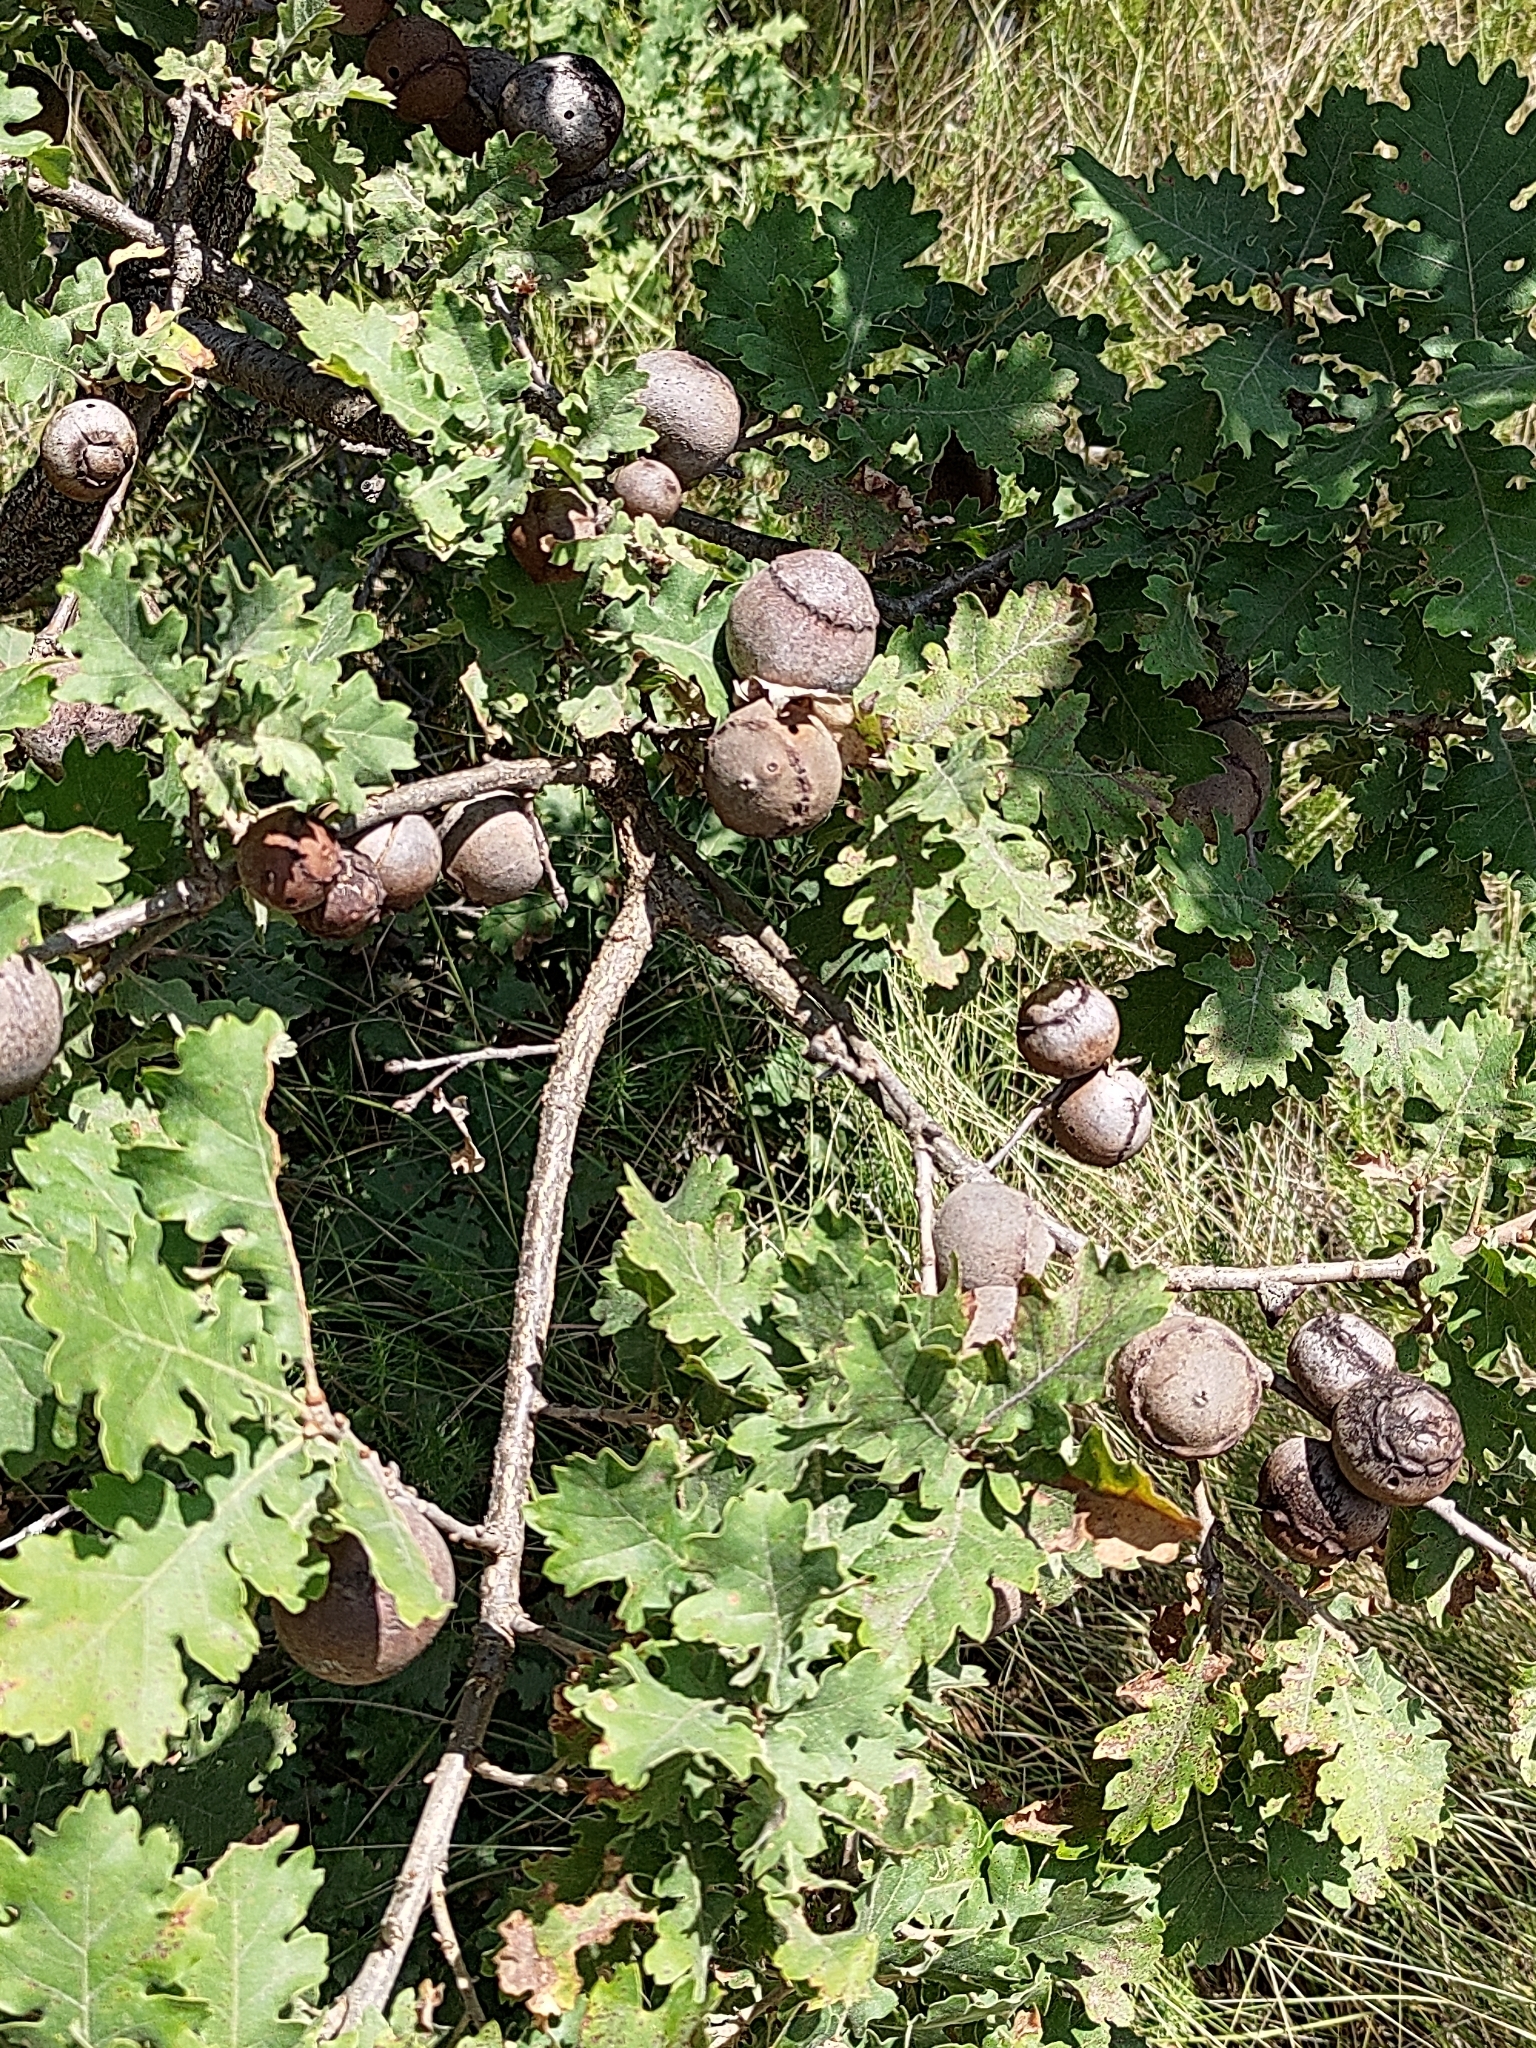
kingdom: Plantae
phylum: Tracheophyta
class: Magnoliopsida
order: Fagales
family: Fagaceae
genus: Quercus
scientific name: Quercus pubescens
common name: Downy oak
